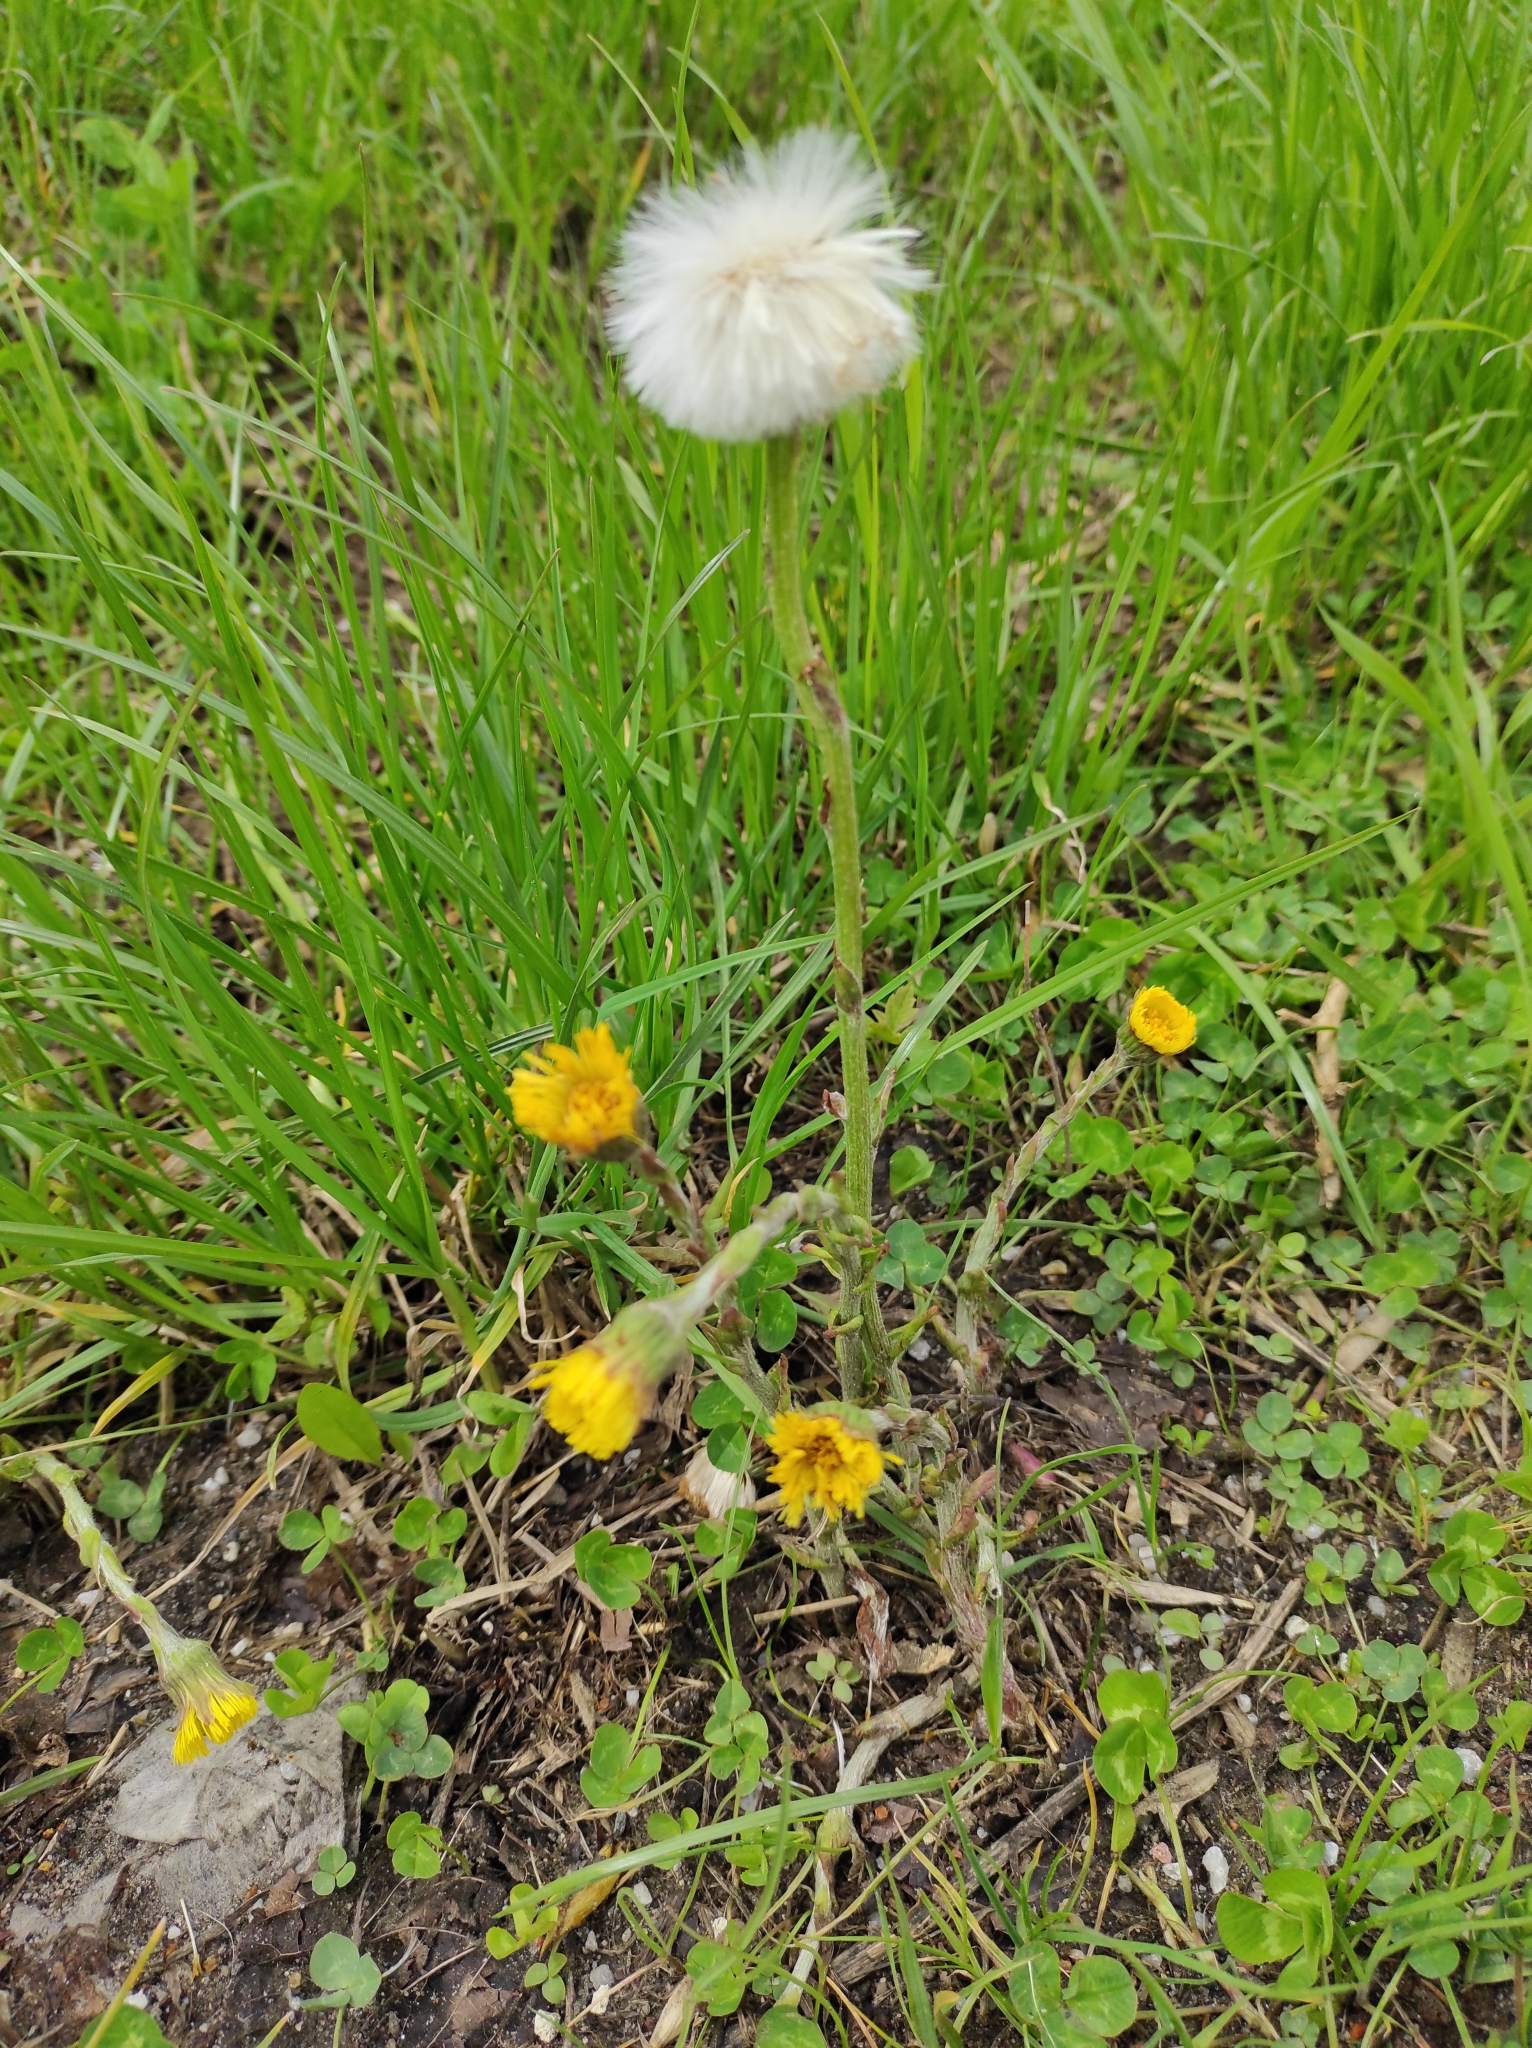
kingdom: Plantae
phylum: Tracheophyta
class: Magnoliopsida
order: Asterales
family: Asteraceae
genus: Tussilago
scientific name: Tussilago farfara
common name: Coltsfoot
